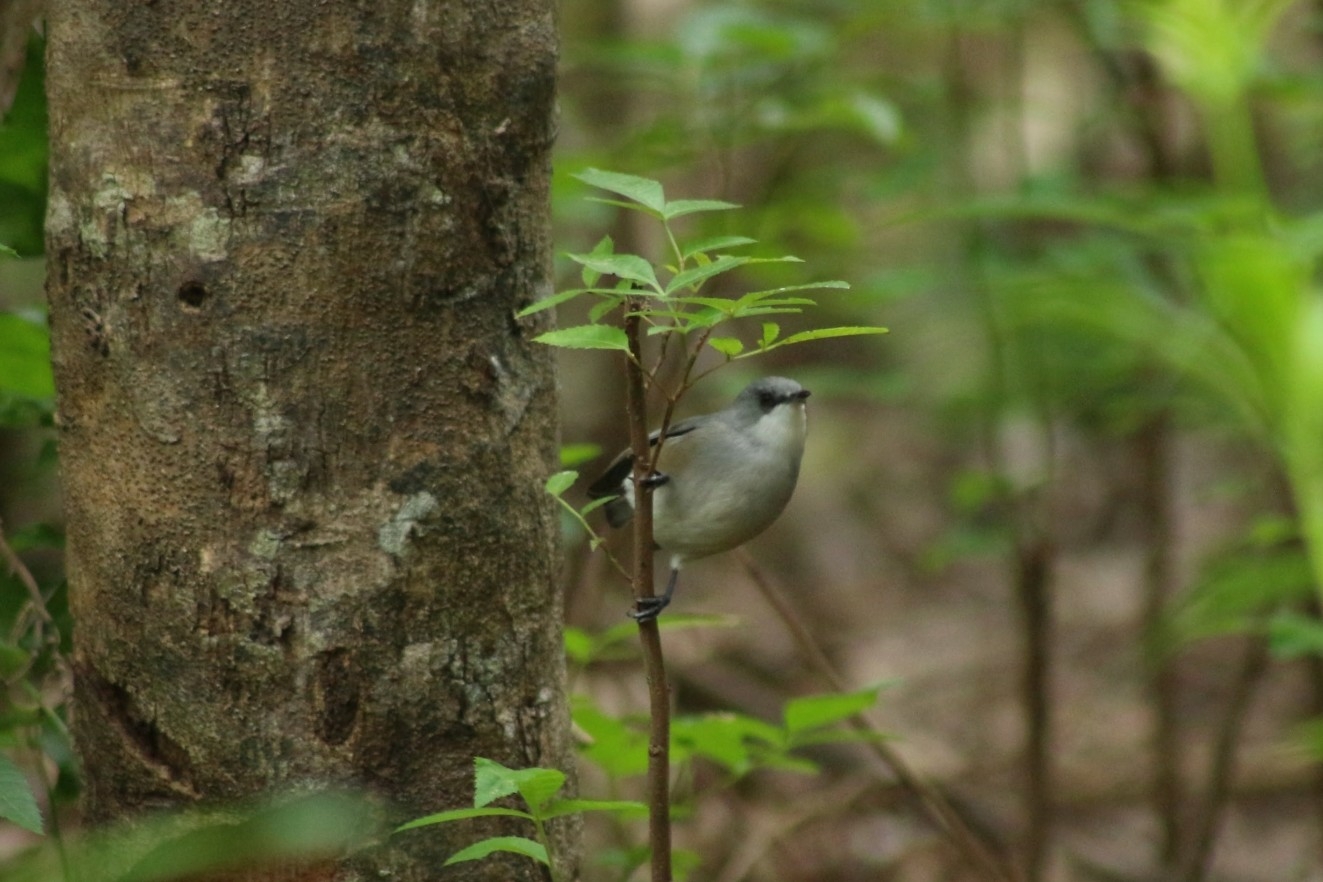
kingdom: Animalia
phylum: Chordata
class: Aves
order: Passeriformes
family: Zosteropidae
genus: Zosterops
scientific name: Zosterops mauritianus
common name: Mauritius gray white-eye
